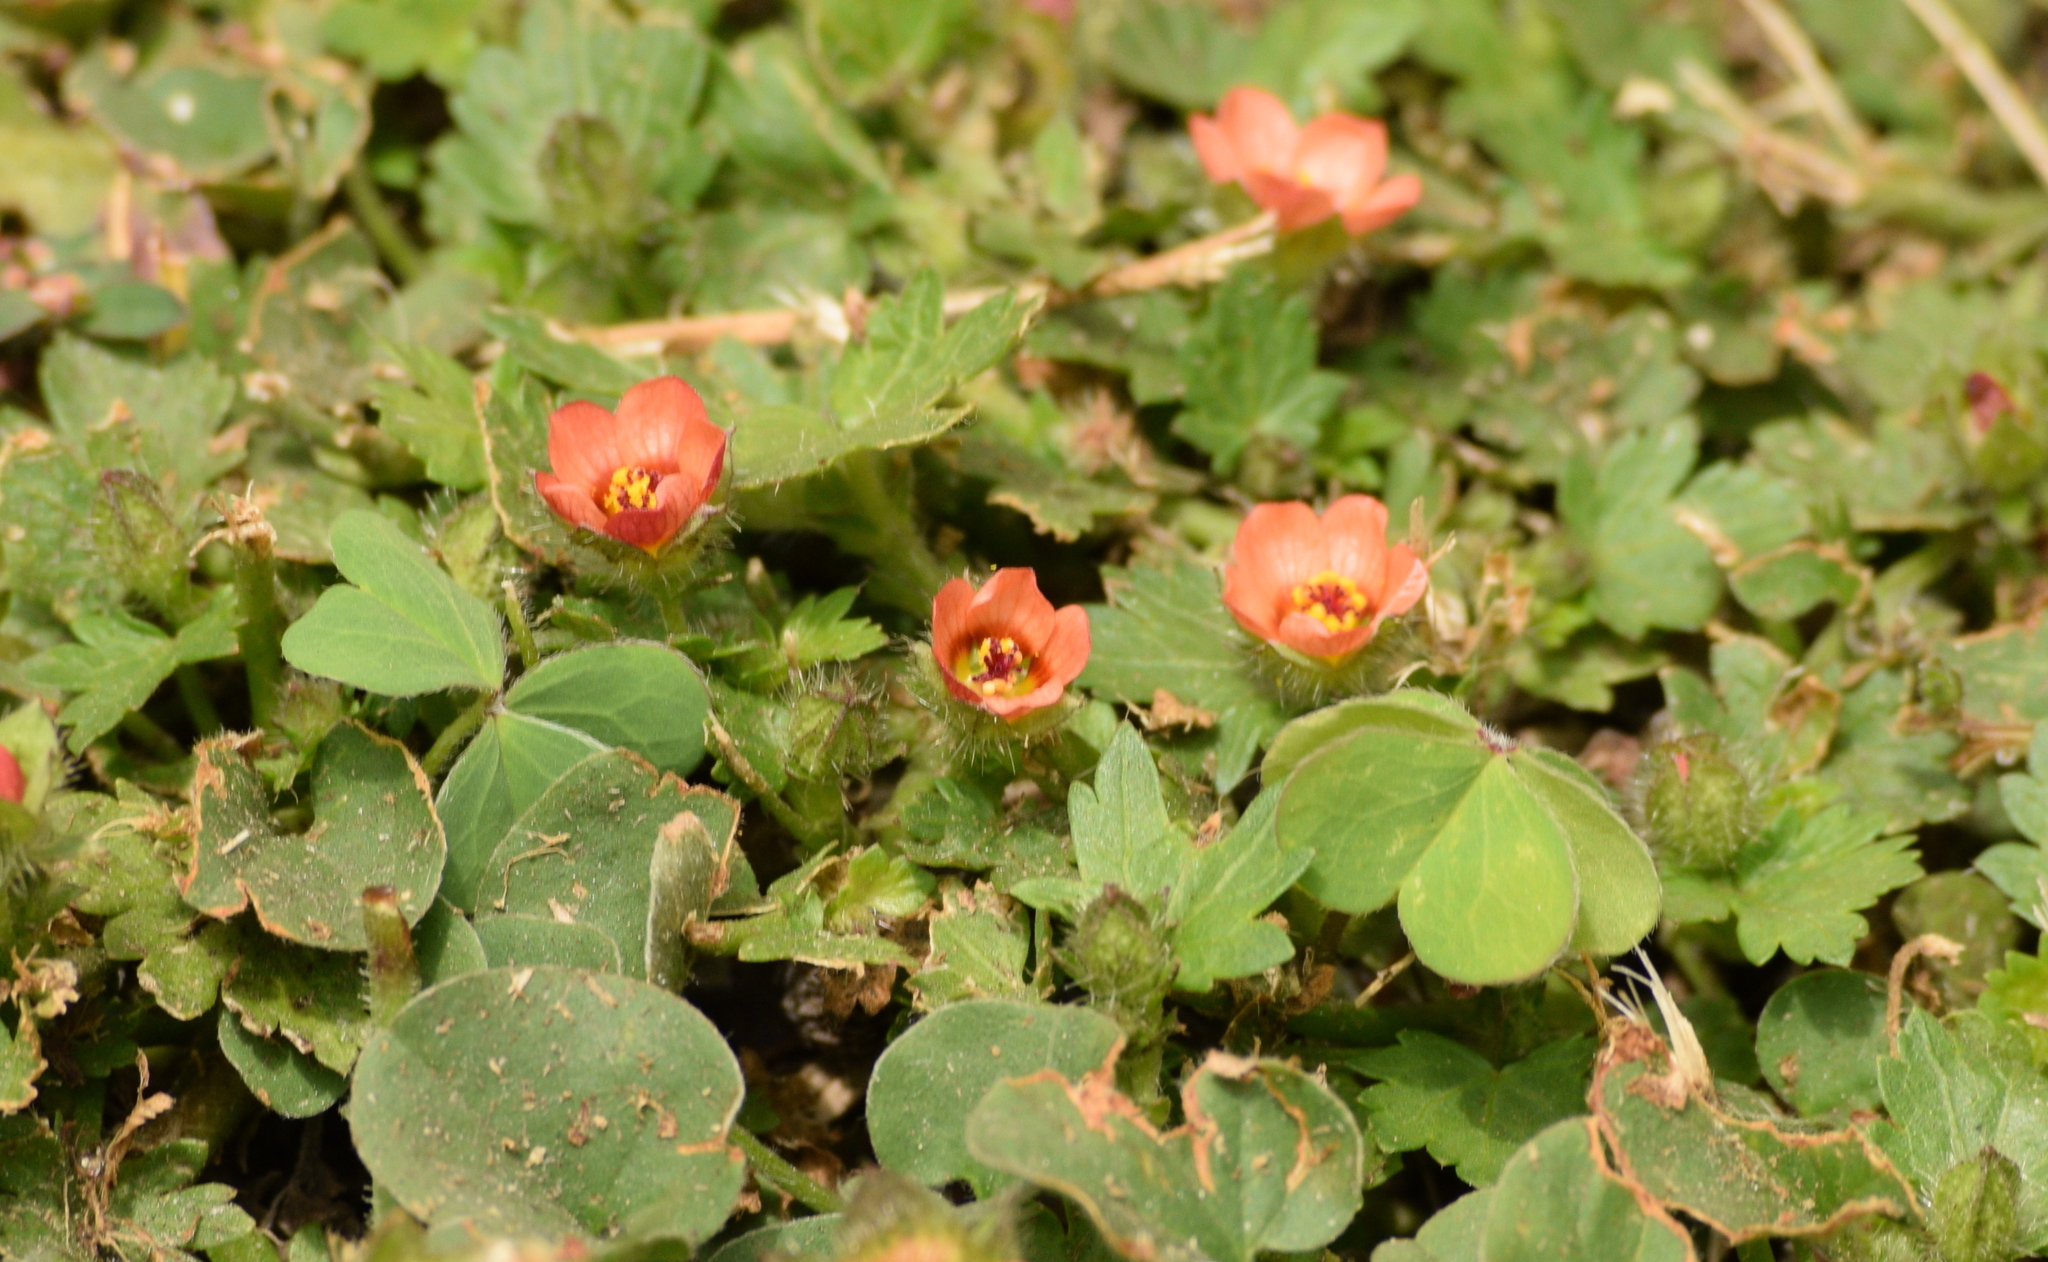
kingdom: Plantae
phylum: Tracheophyta
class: Magnoliopsida
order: Malvales
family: Malvaceae
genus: Modiola
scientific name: Modiola caroliniana
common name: Carolina bristlemallow
